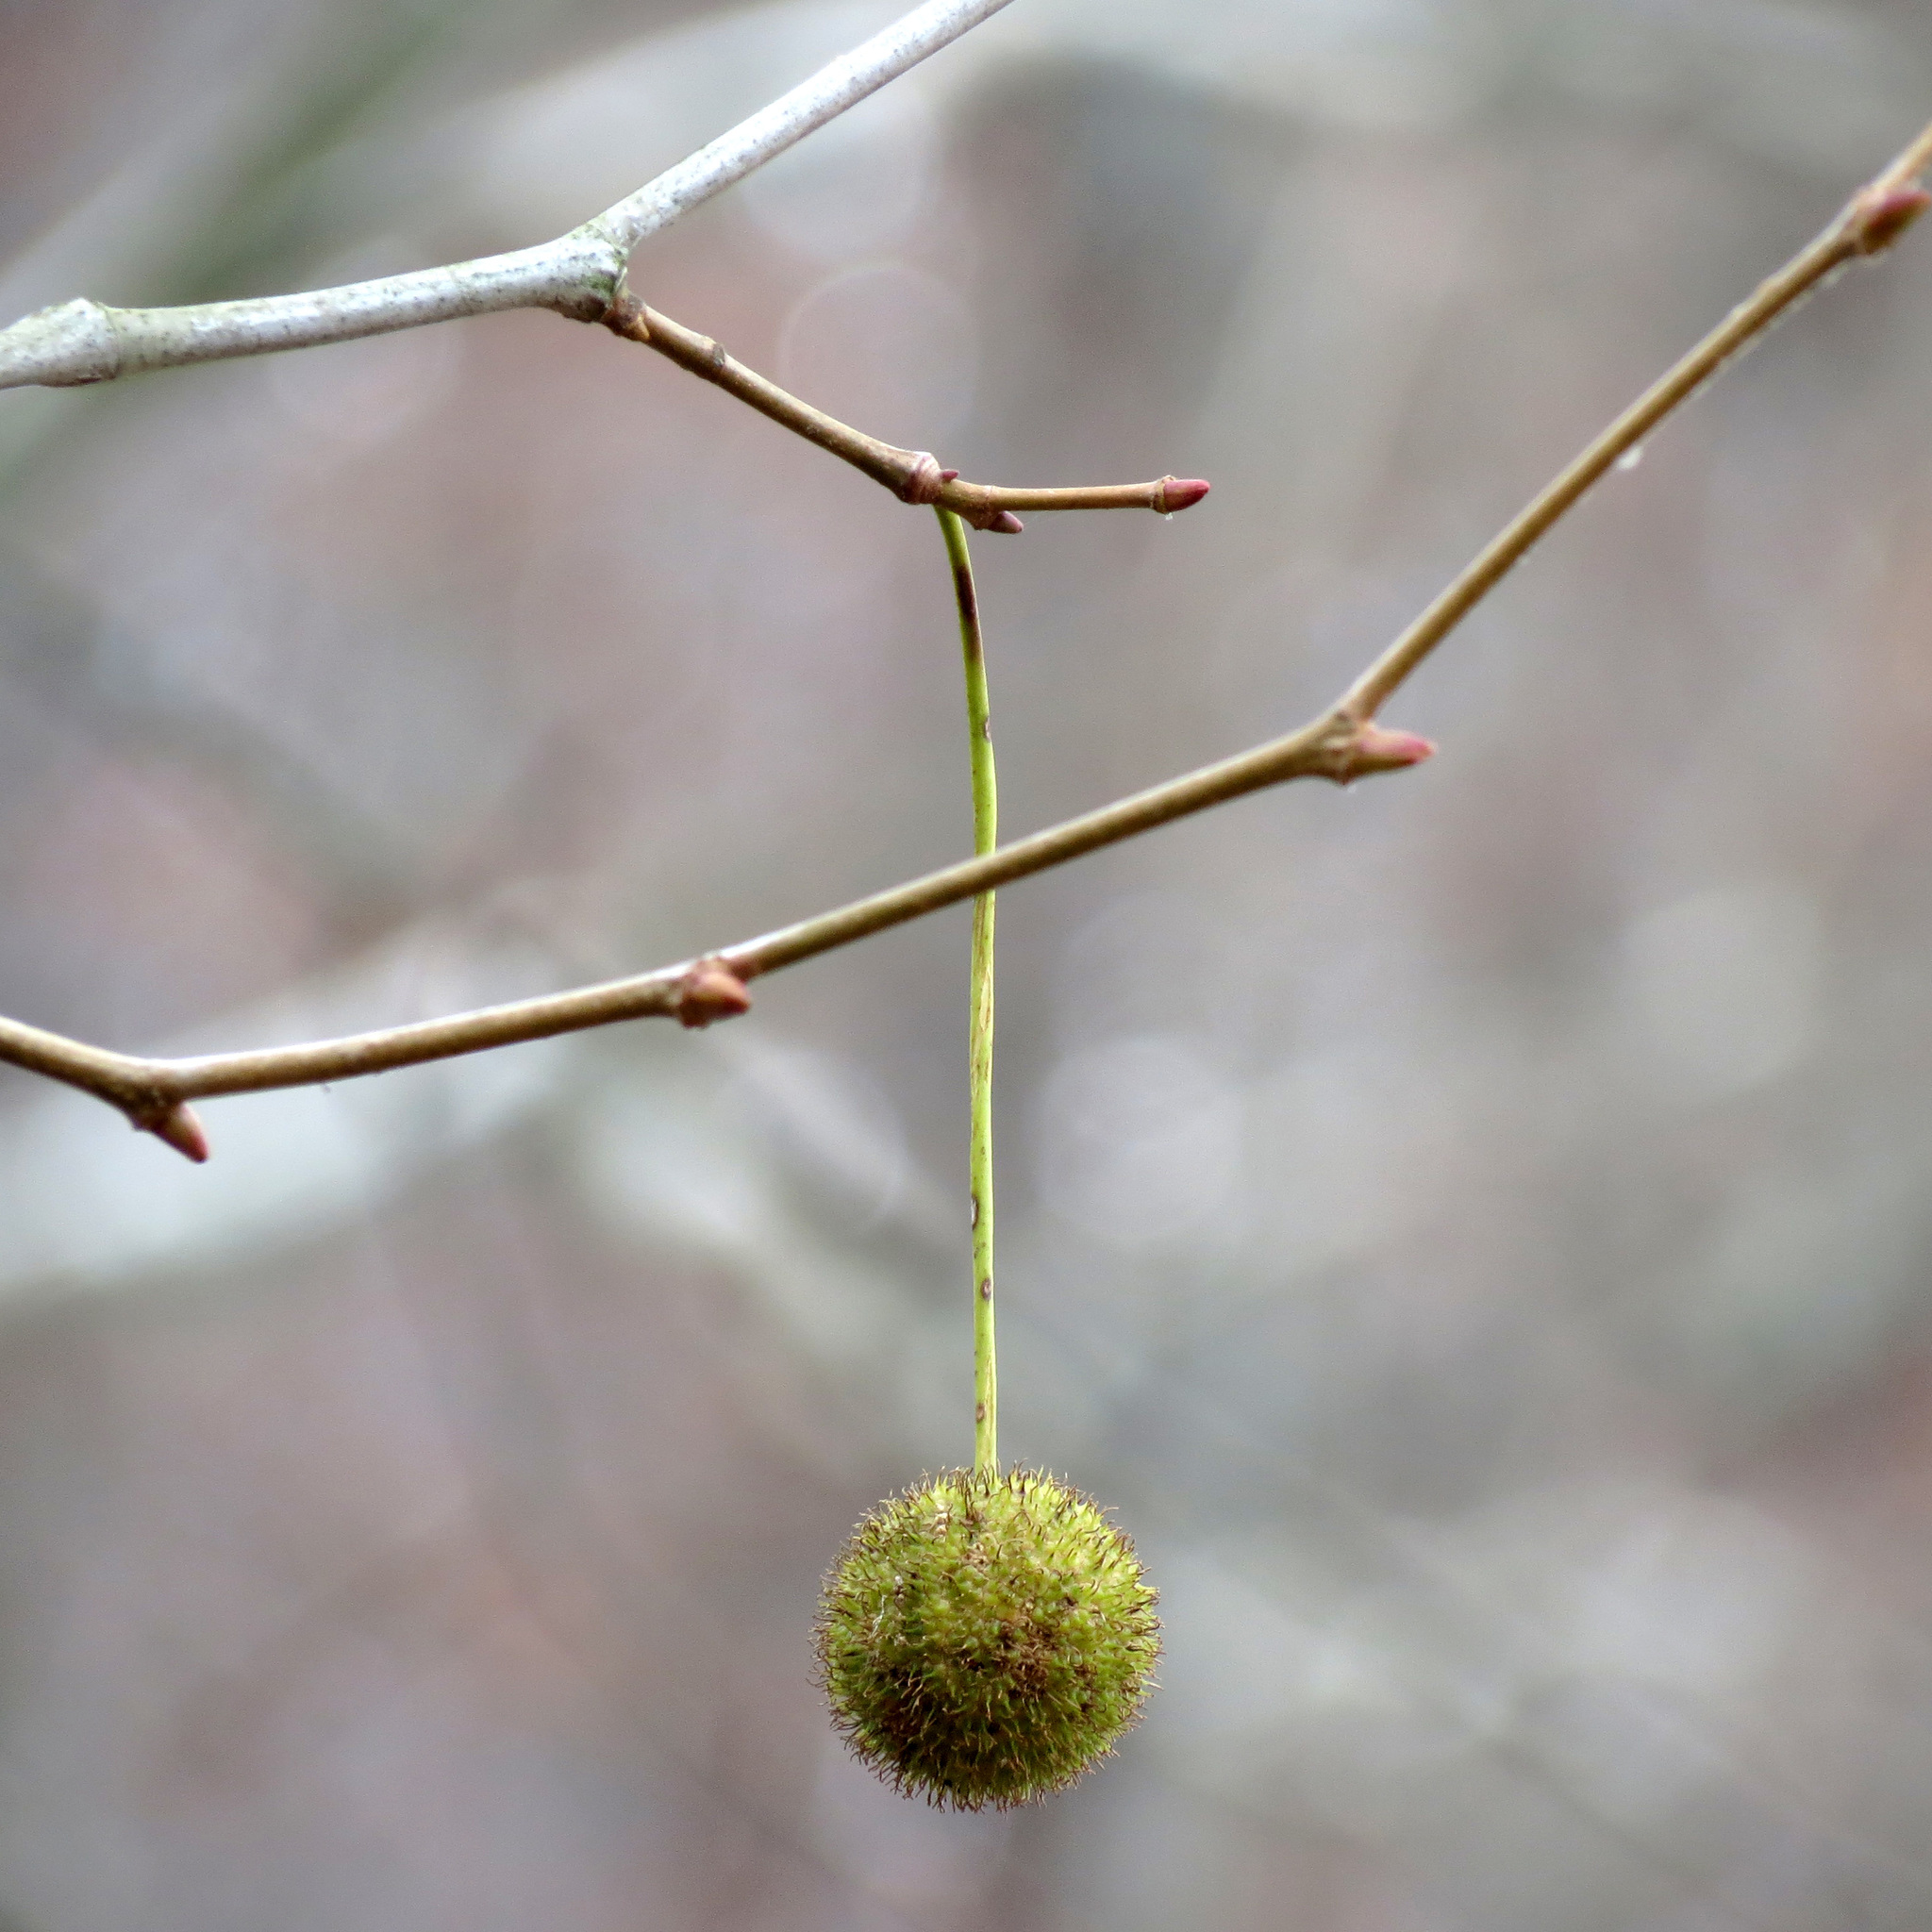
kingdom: Plantae
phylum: Tracheophyta
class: Magnoliopsida
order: Proteales
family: Platanaceae
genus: Platanus
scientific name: Platanus occidentalis
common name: American sycamore
